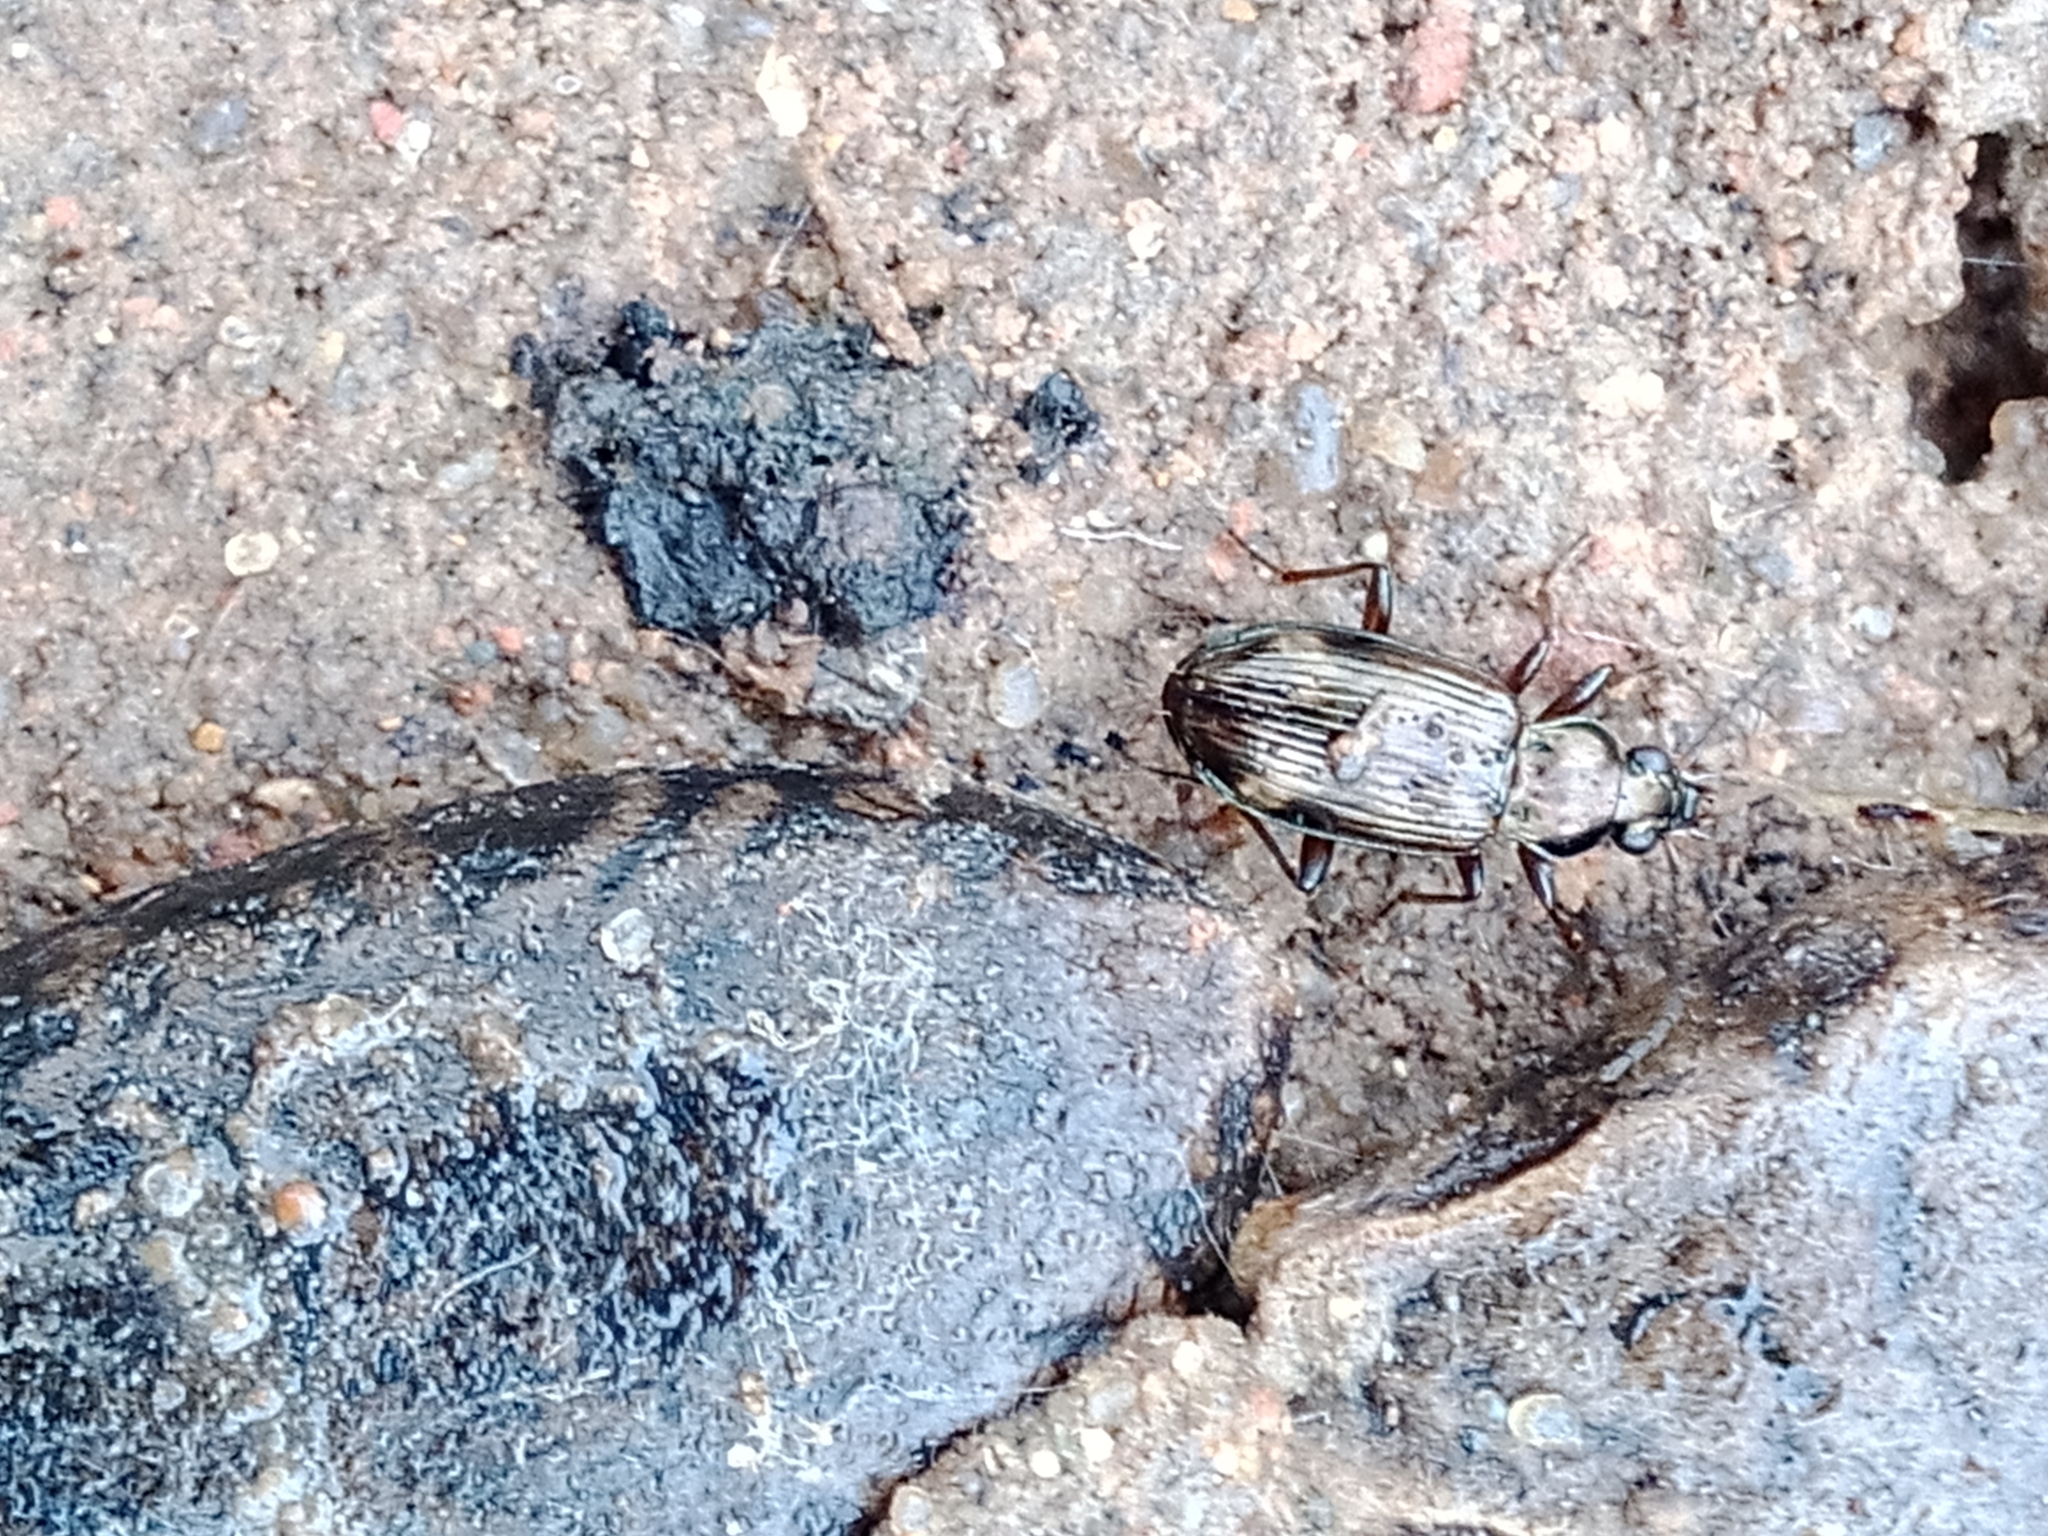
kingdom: Animalia
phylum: Arthropoda
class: Insecta
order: Coleoptera
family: Carabidae
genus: Bembidion
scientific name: Bembidion dentellum
